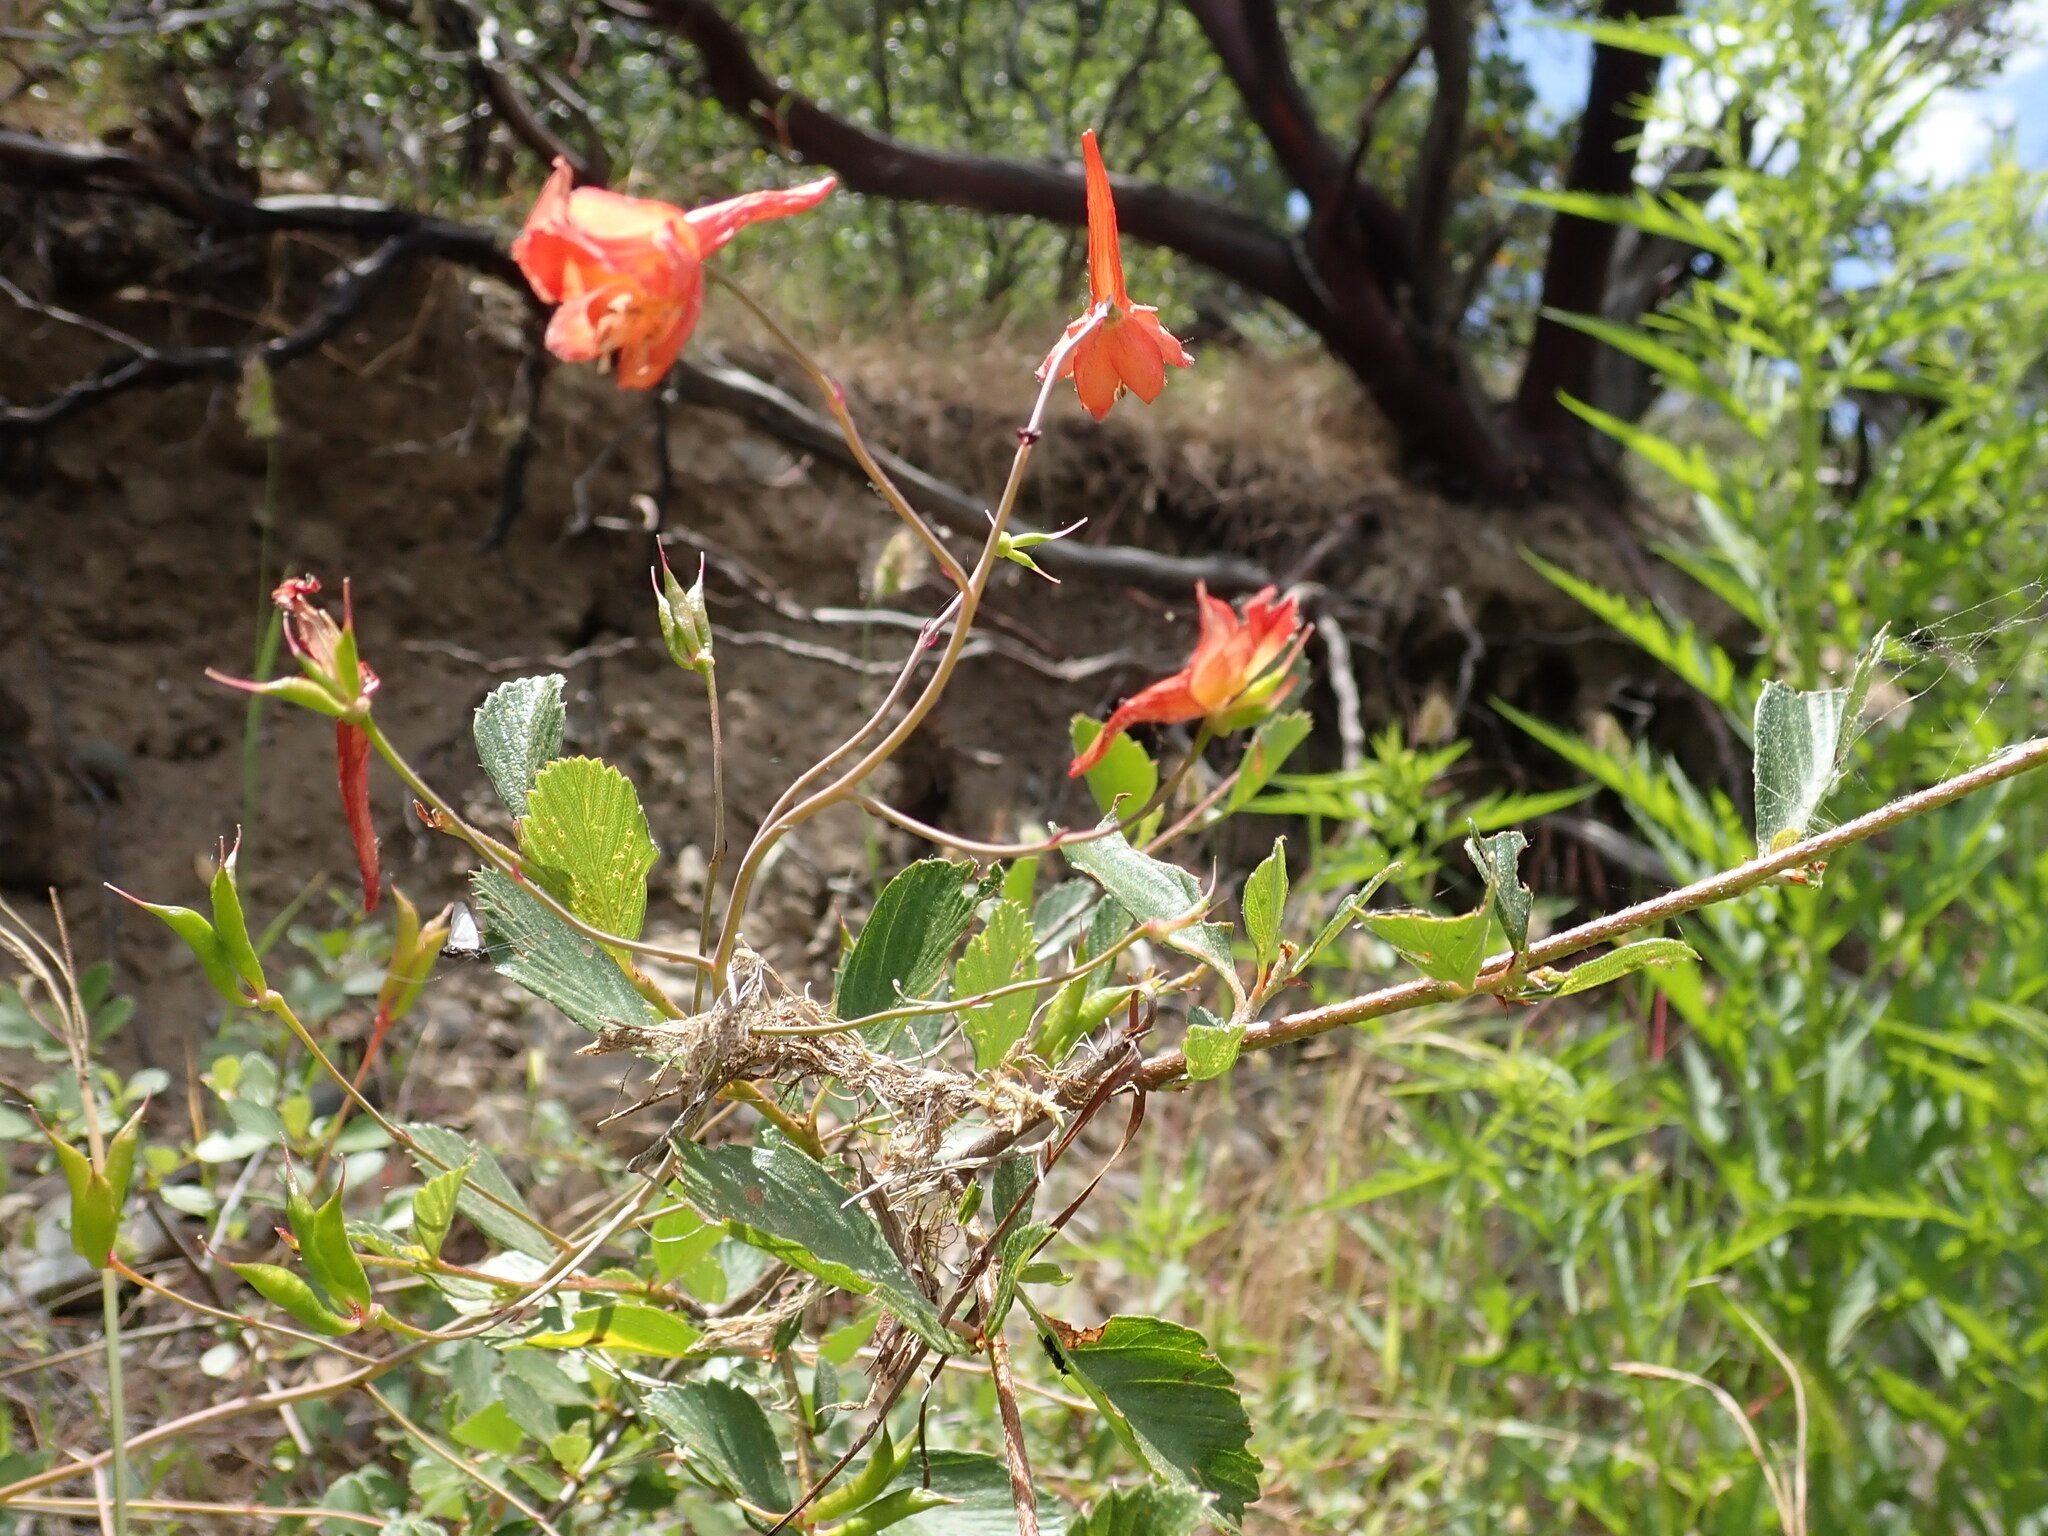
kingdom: Plantae
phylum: Tracheophyta
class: Magnoliopsida
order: Ranunculales
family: Ranunculaceae
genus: Delphinium
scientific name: Delphinium nudicaule
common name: Red larkspur
